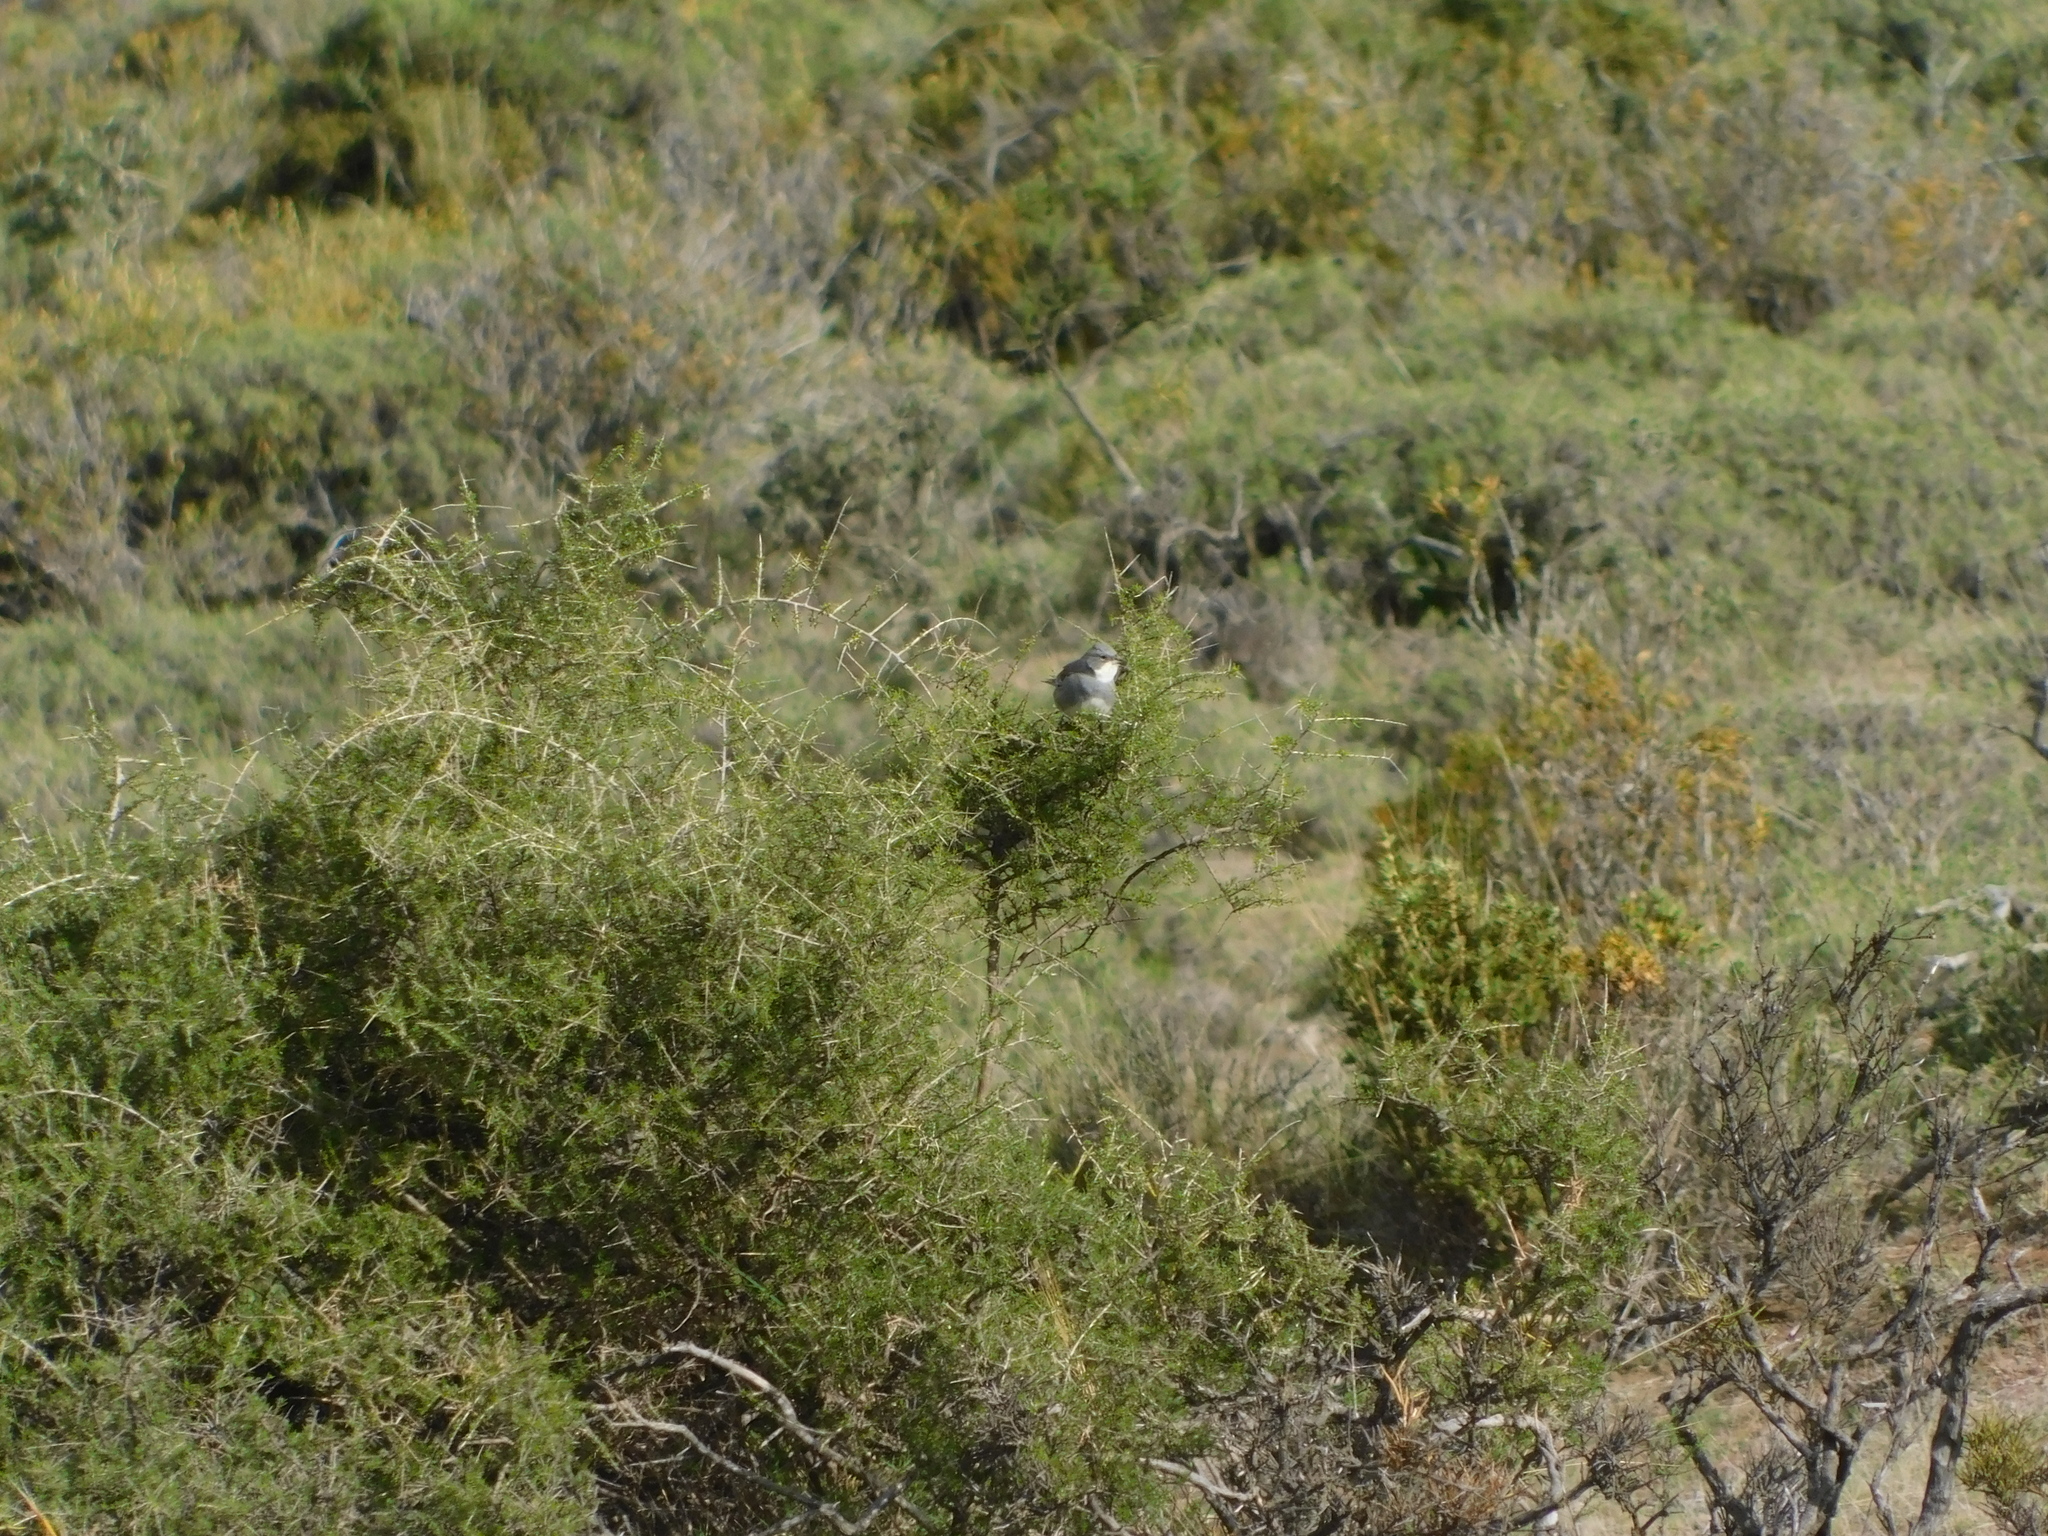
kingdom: Animalia
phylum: Chordata
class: Aves
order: Passeriformes
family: Thraupidae
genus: Diuca
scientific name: Diuca diuca
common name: Common diuca finch
